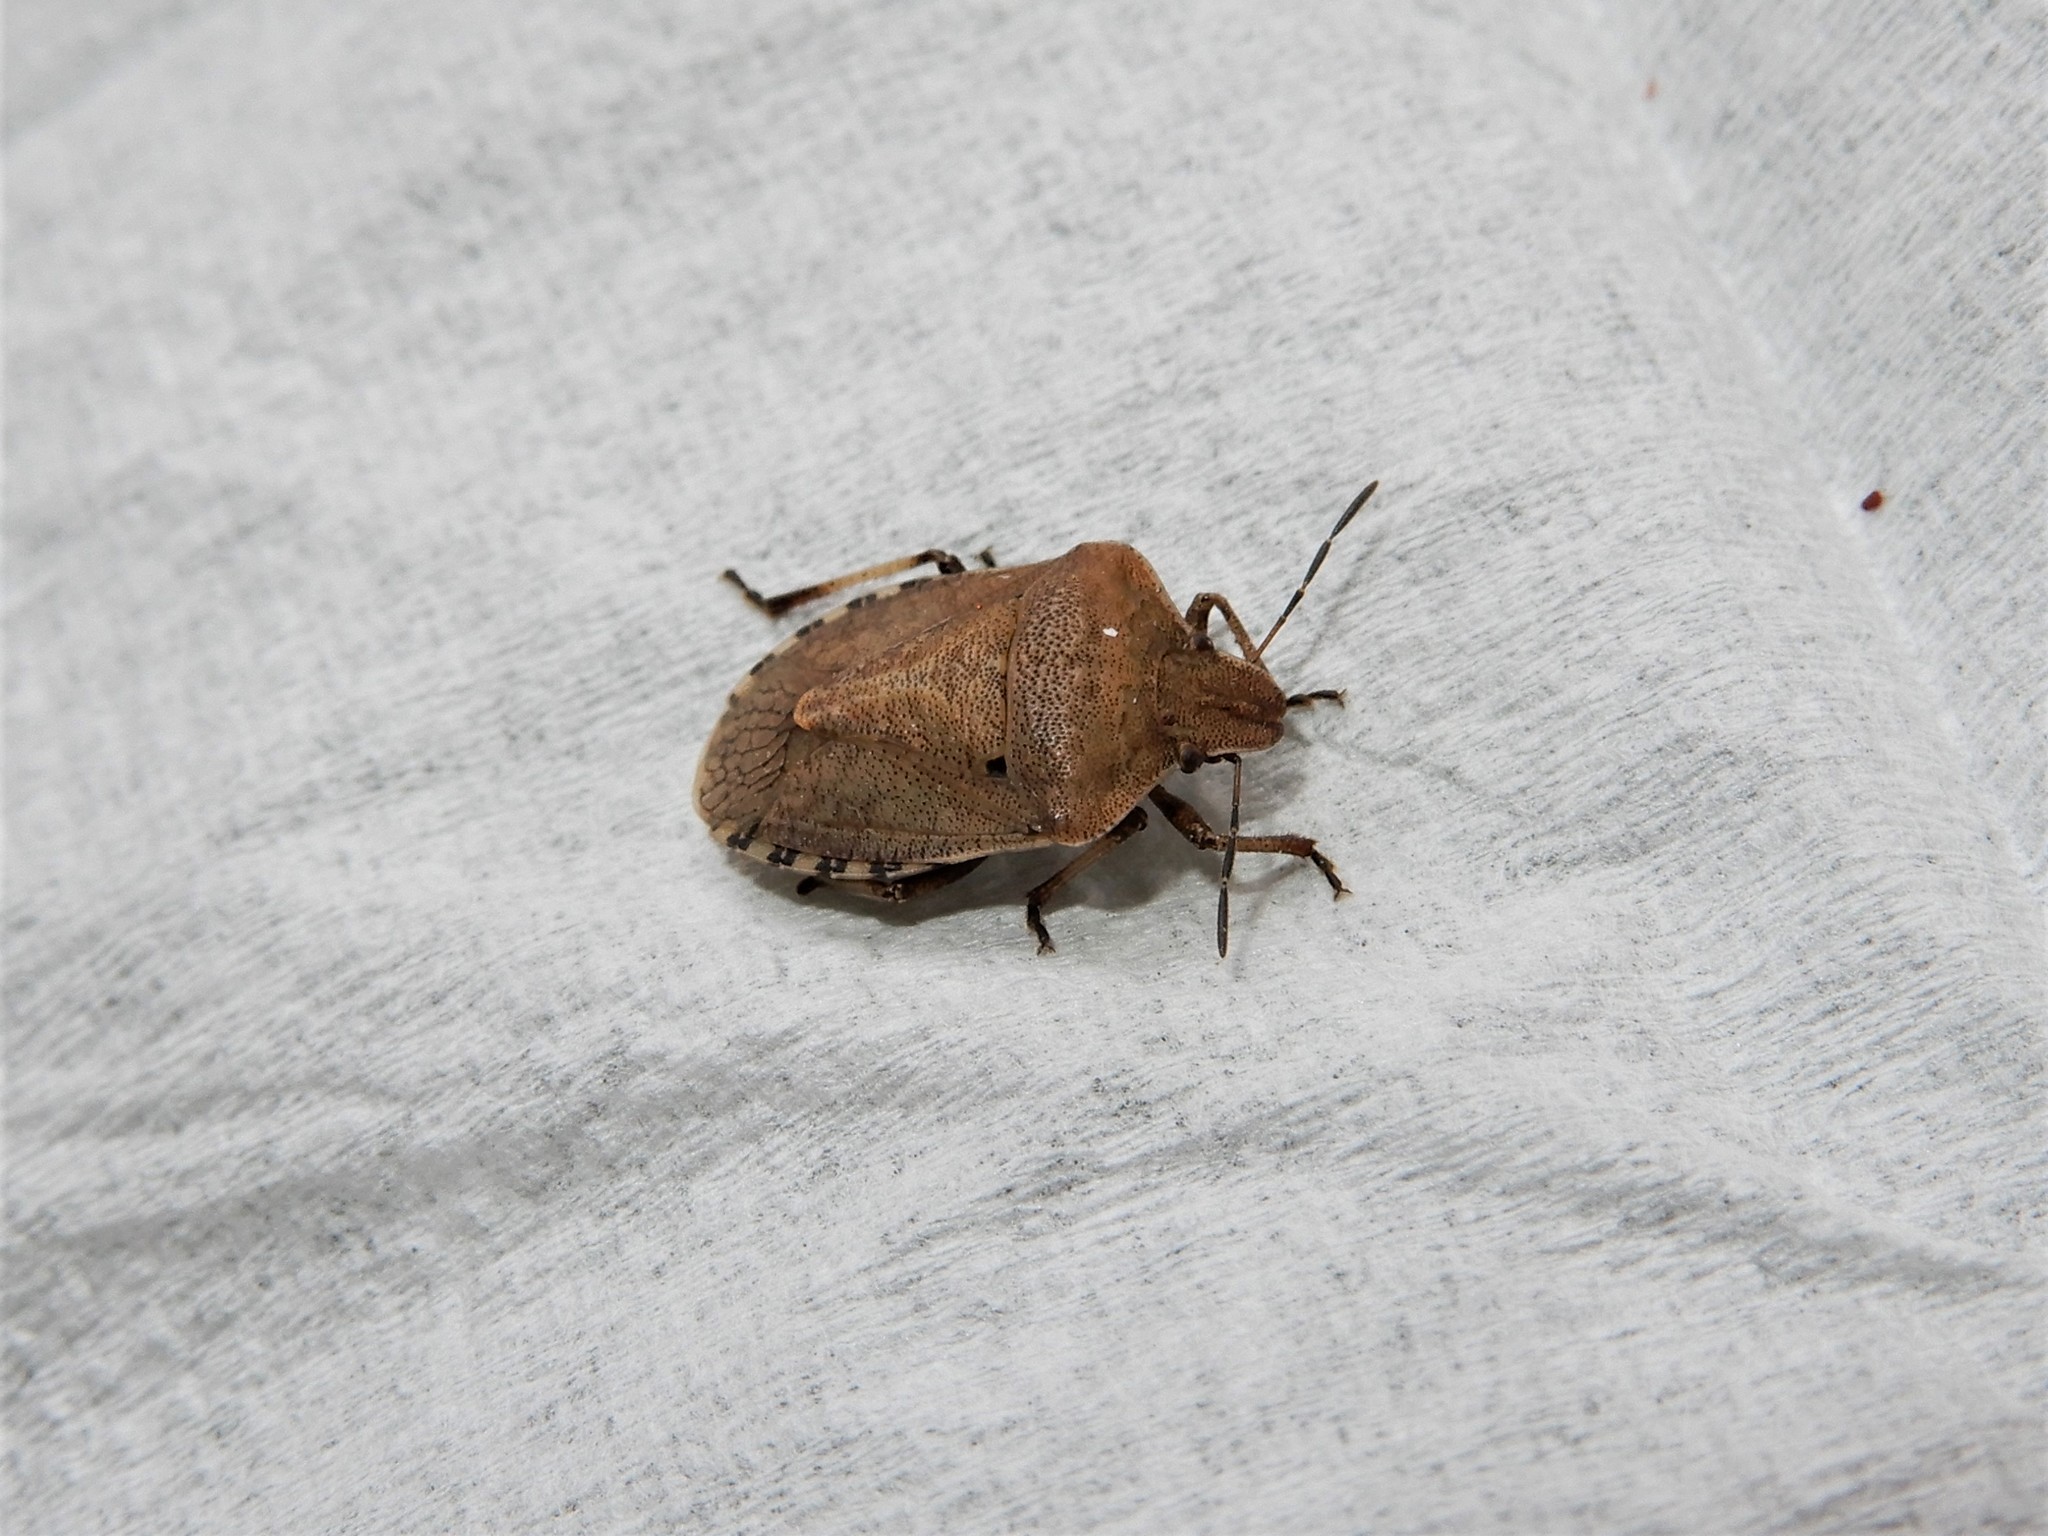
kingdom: Animalia
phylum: Arthropoda
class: Insecta
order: Hemiptera
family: Pentatomidae
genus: Dictyotus
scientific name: Dictyotus caenosus
